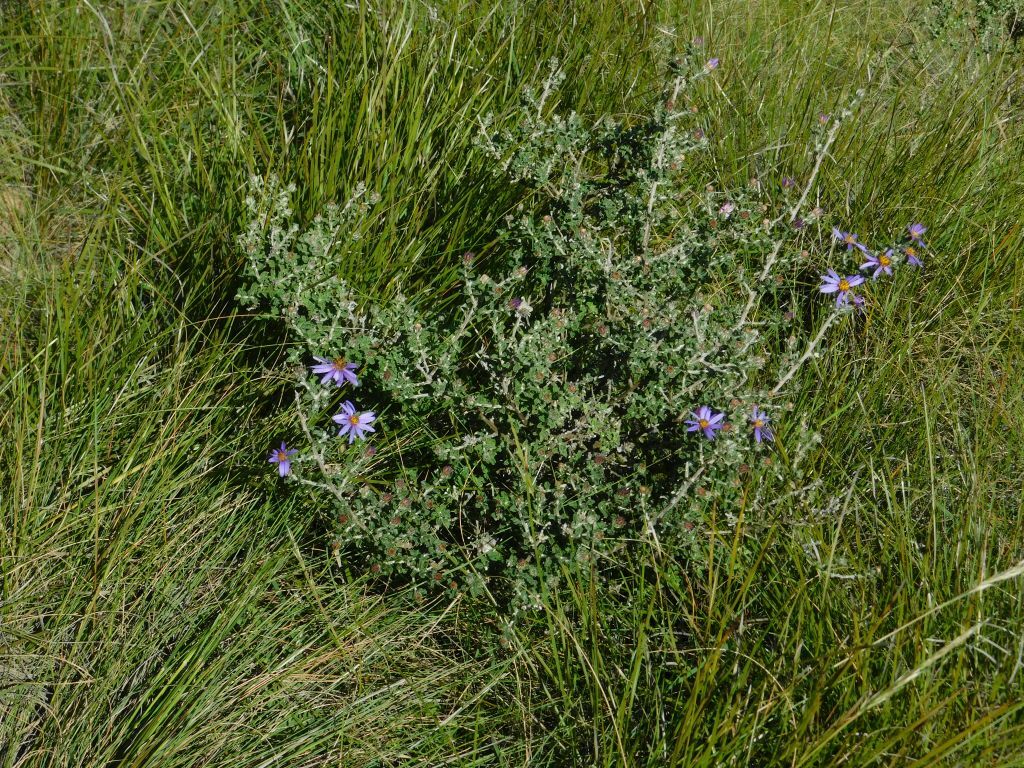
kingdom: Plantae
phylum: Tracheophyta
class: Magnoliopsida
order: Asterales
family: Asteraceae
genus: Printzia
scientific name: Printzia polifolia
